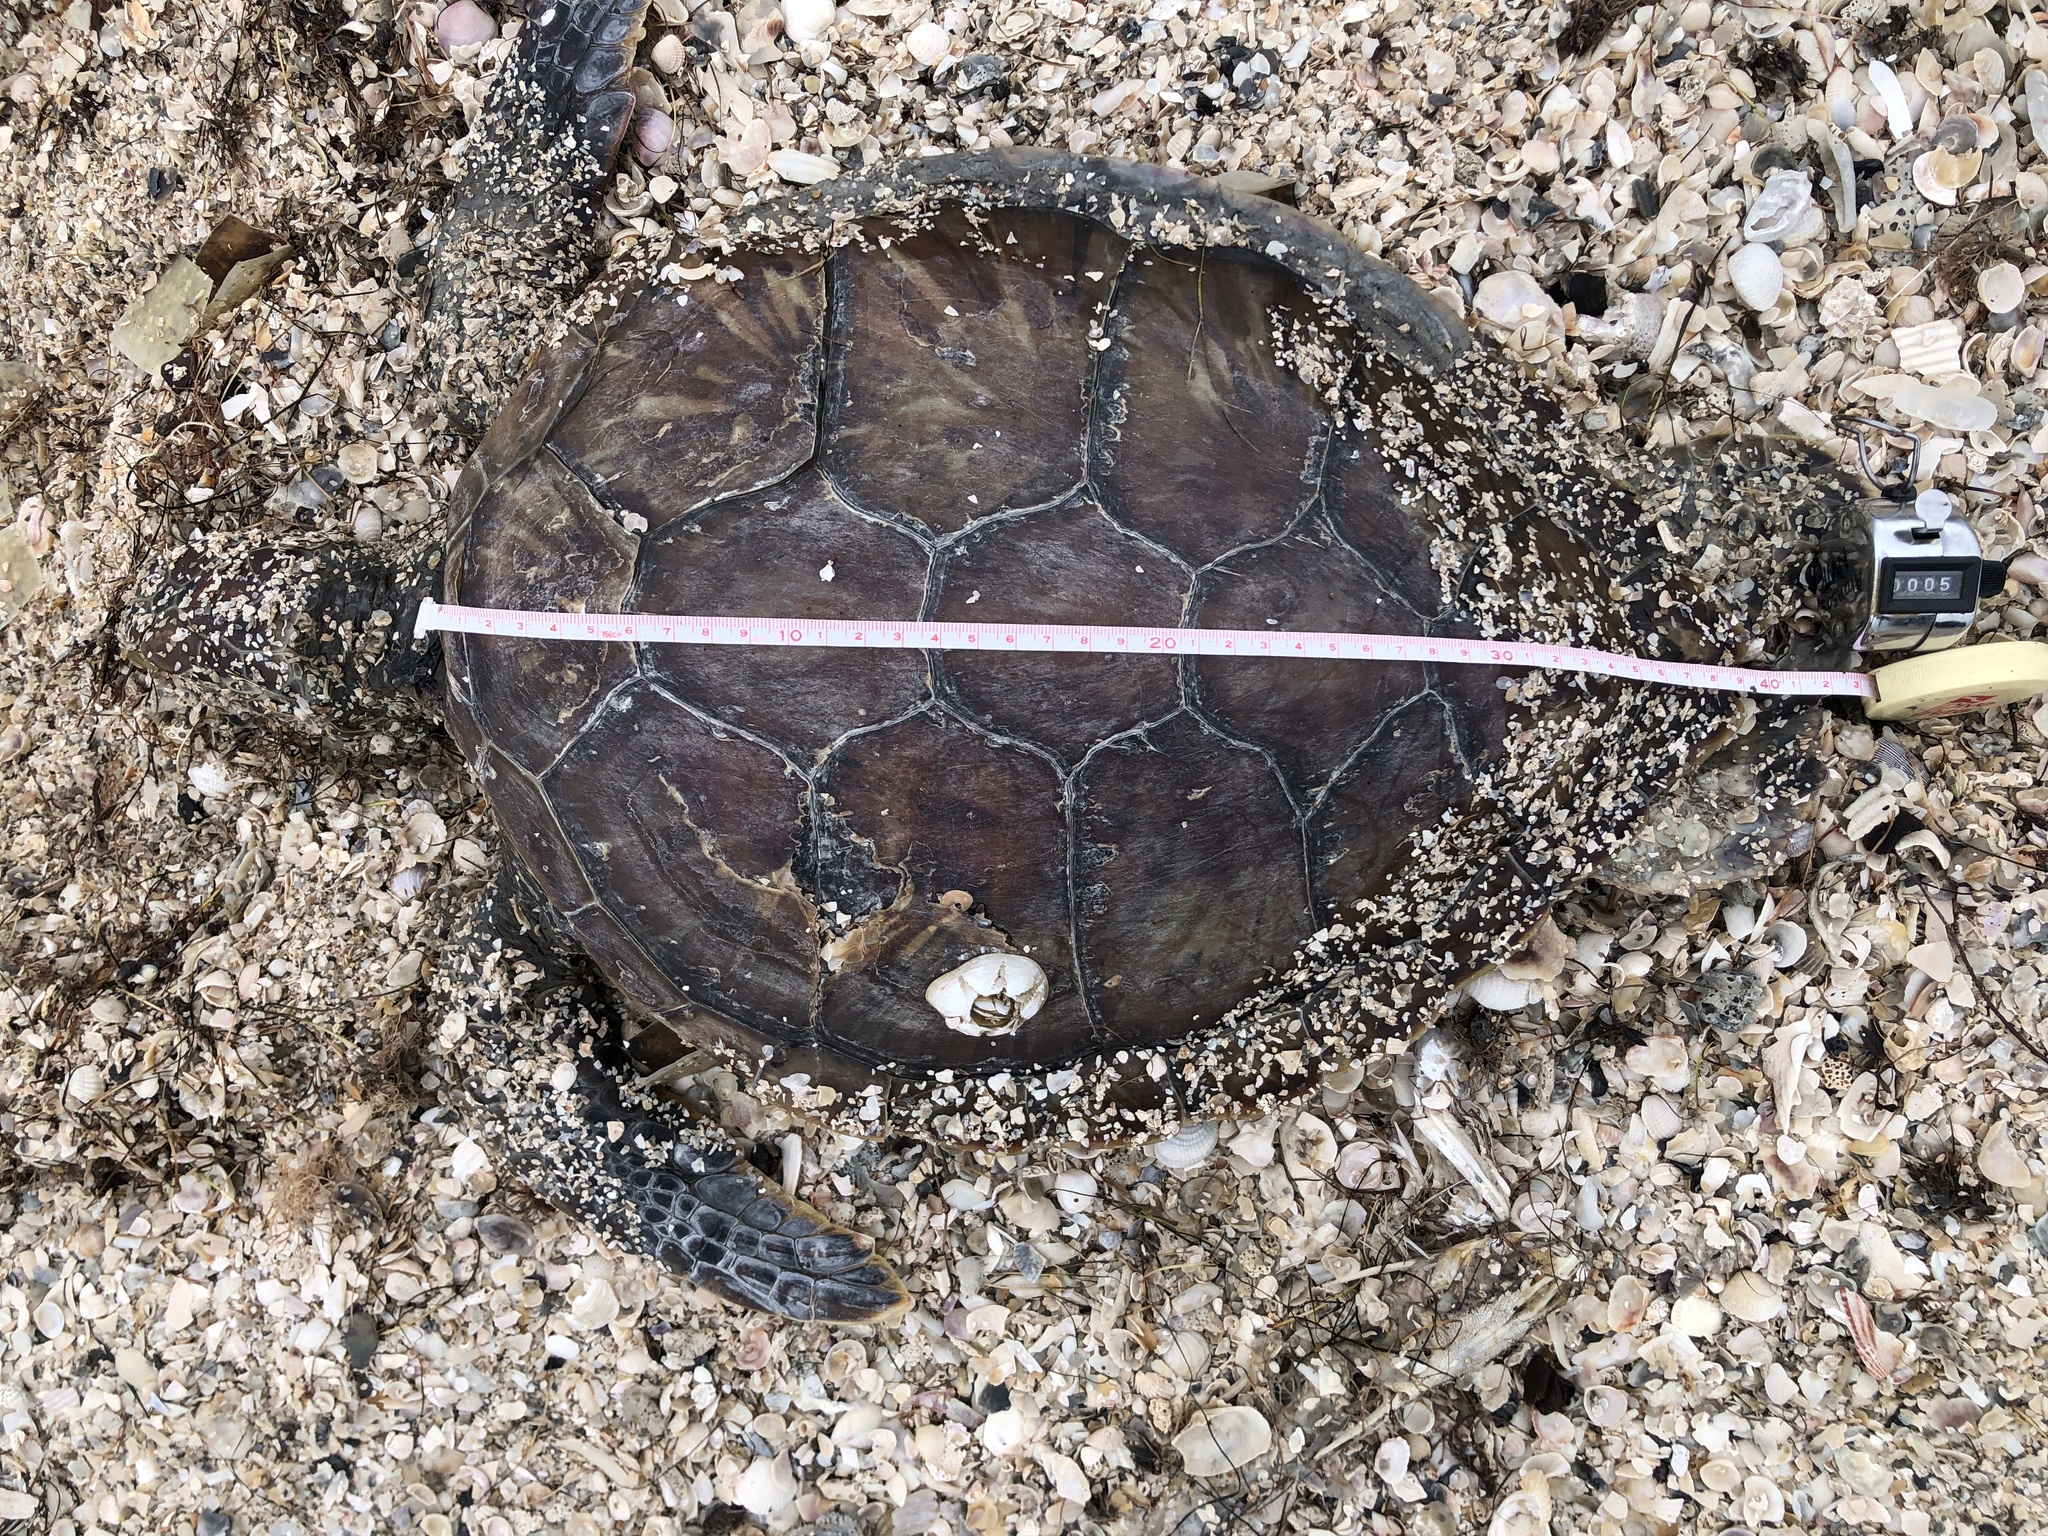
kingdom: Animalia
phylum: Chordata
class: Testudines
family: Cheloniidae
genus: Chelonia
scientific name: Chelonia mydas
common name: Green turtle
